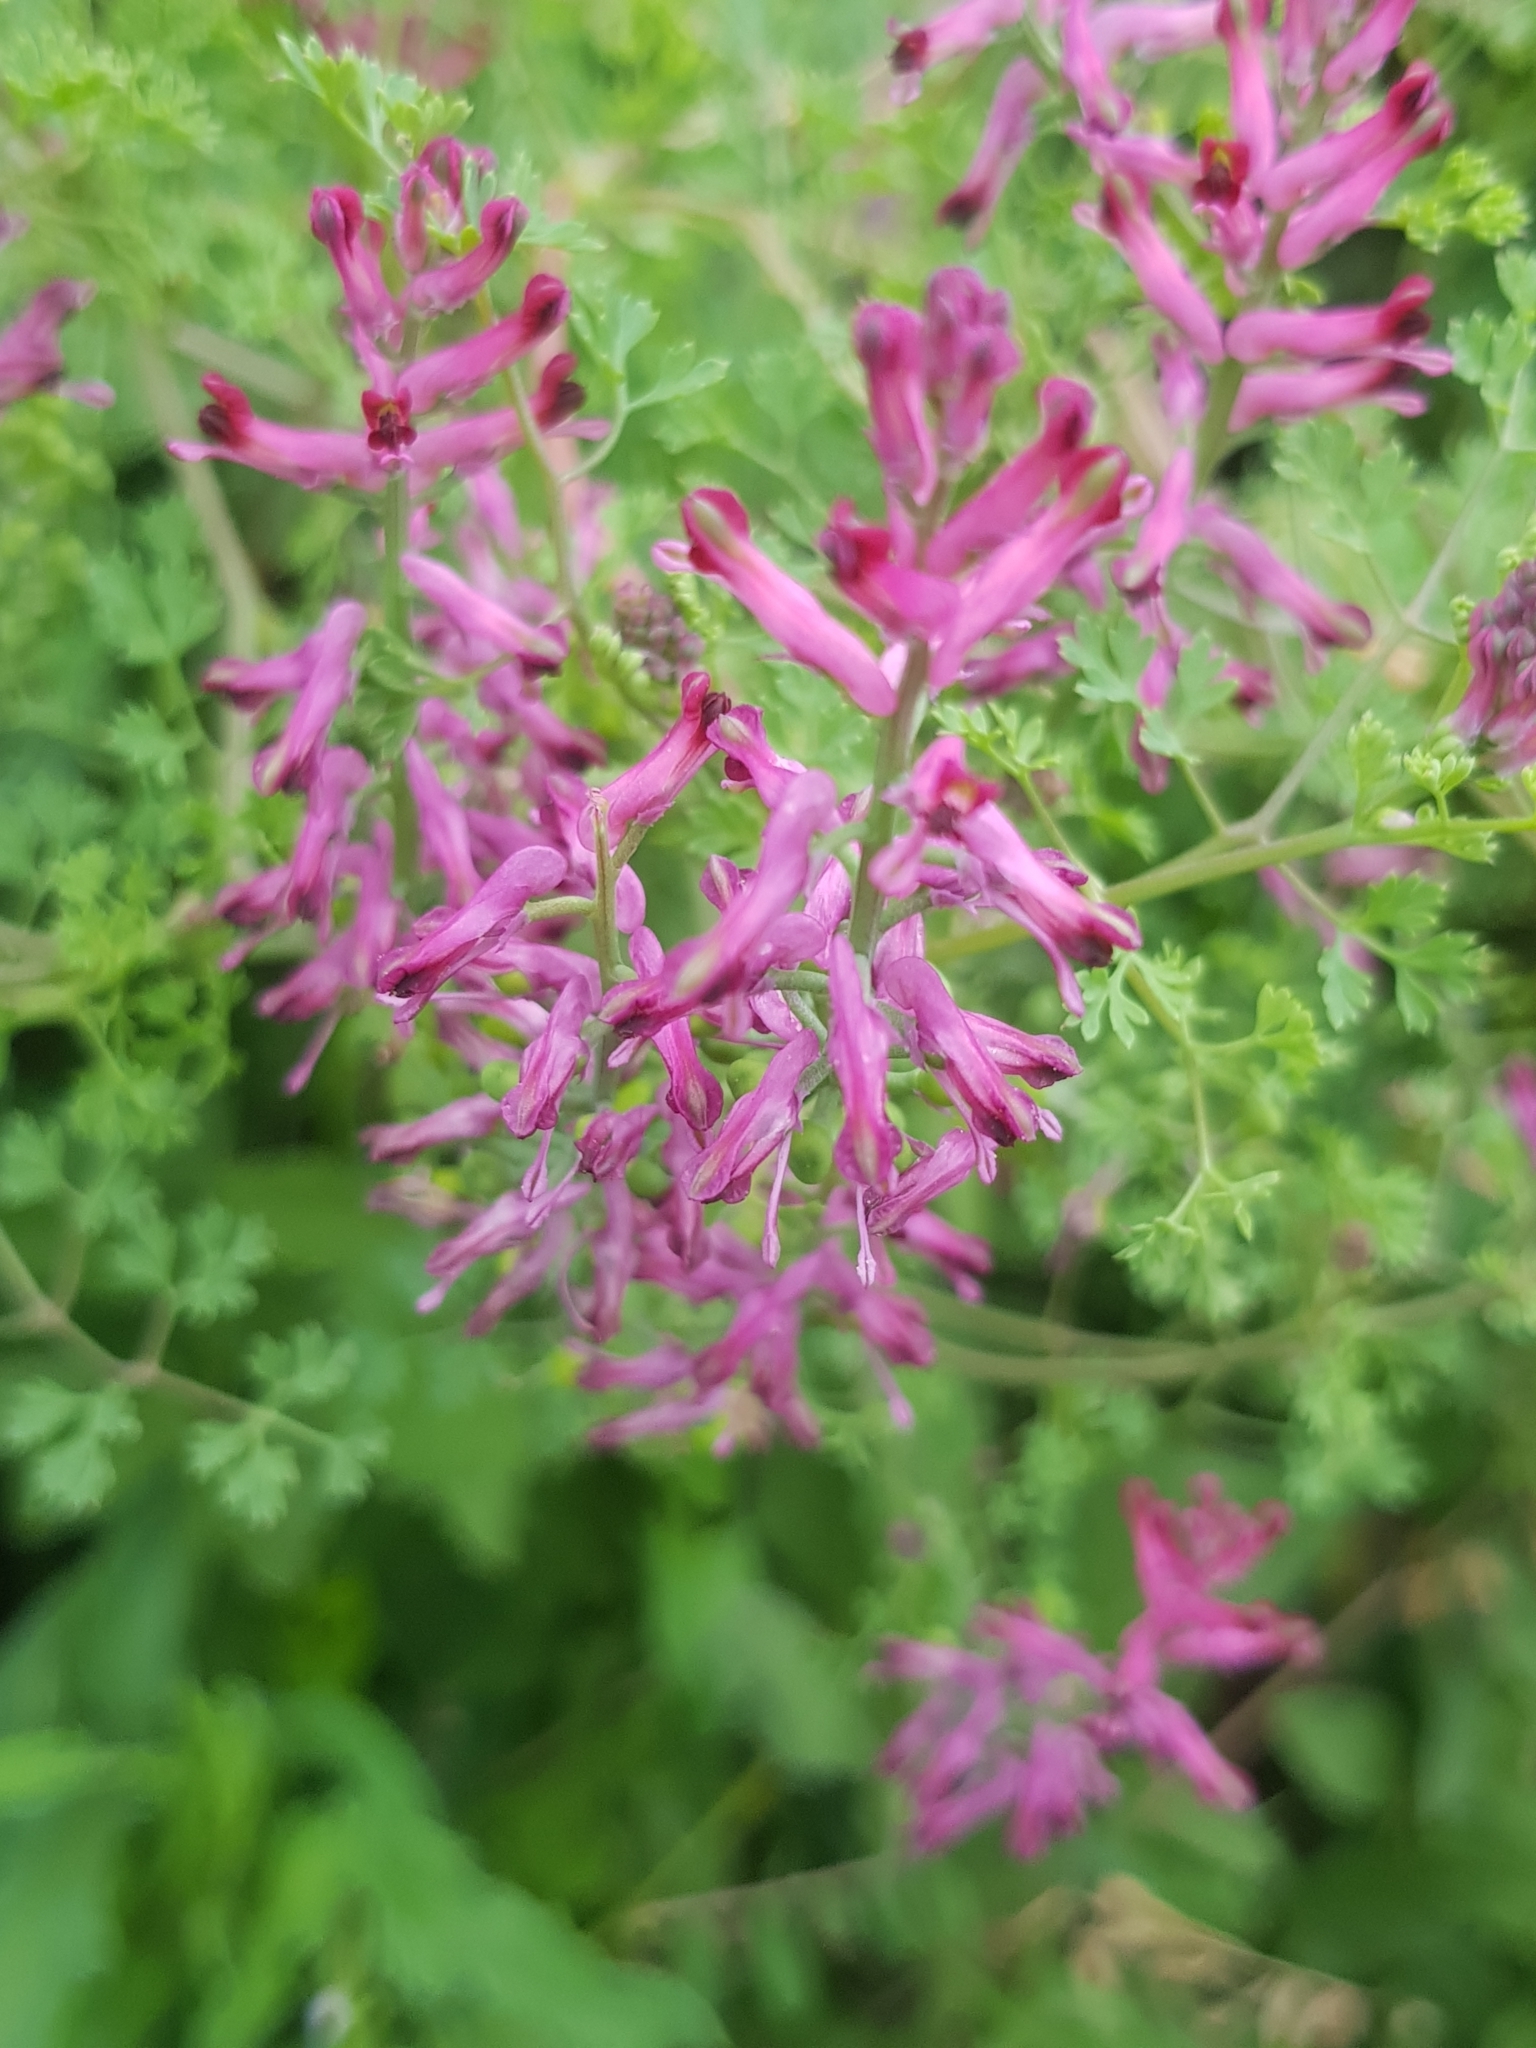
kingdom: Plantae
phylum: Tracheophyta
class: Magnoliopsida
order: Ranunculales
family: Papaveraceae
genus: Fumaria
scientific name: Fumaria officinalis
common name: Common fumitory
